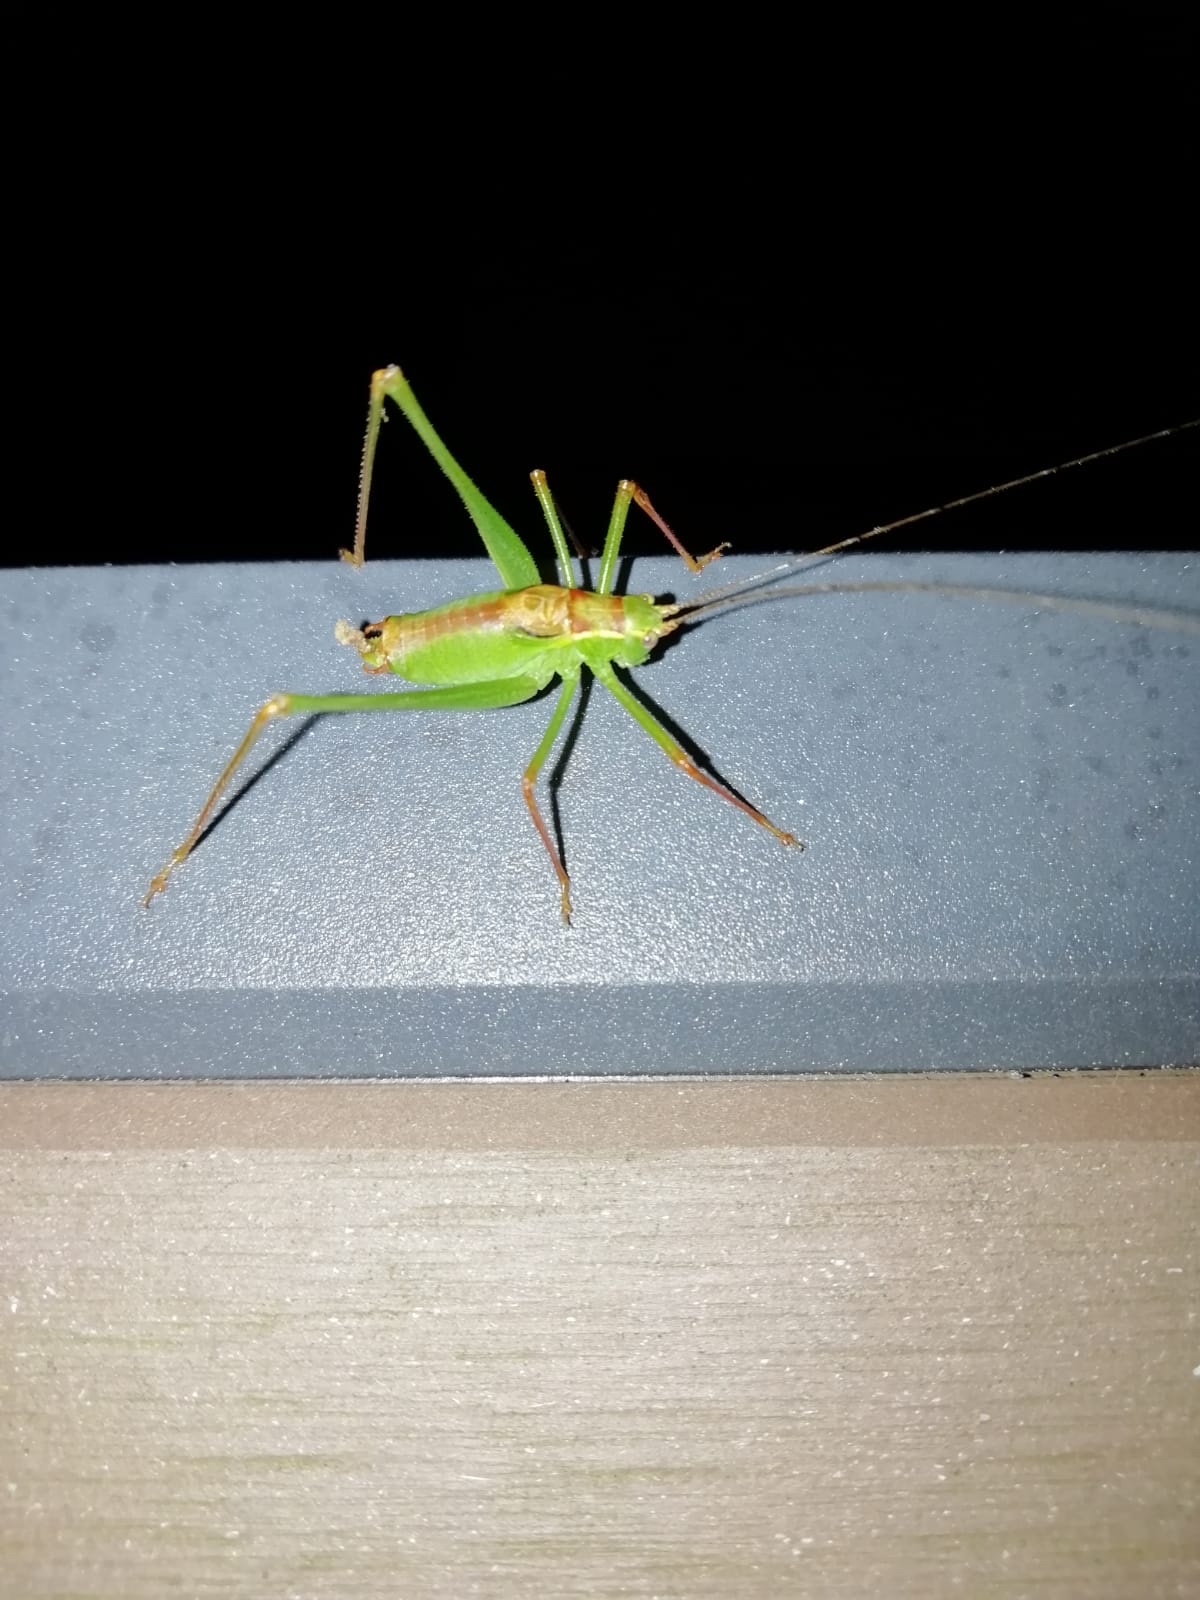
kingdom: Animalia
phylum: Arthropoda
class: Insecta
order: Orthoptera
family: Tettigoniidae
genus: Leptophyes
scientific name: Leptophyes punctatissima
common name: Speckled bush-cricket
